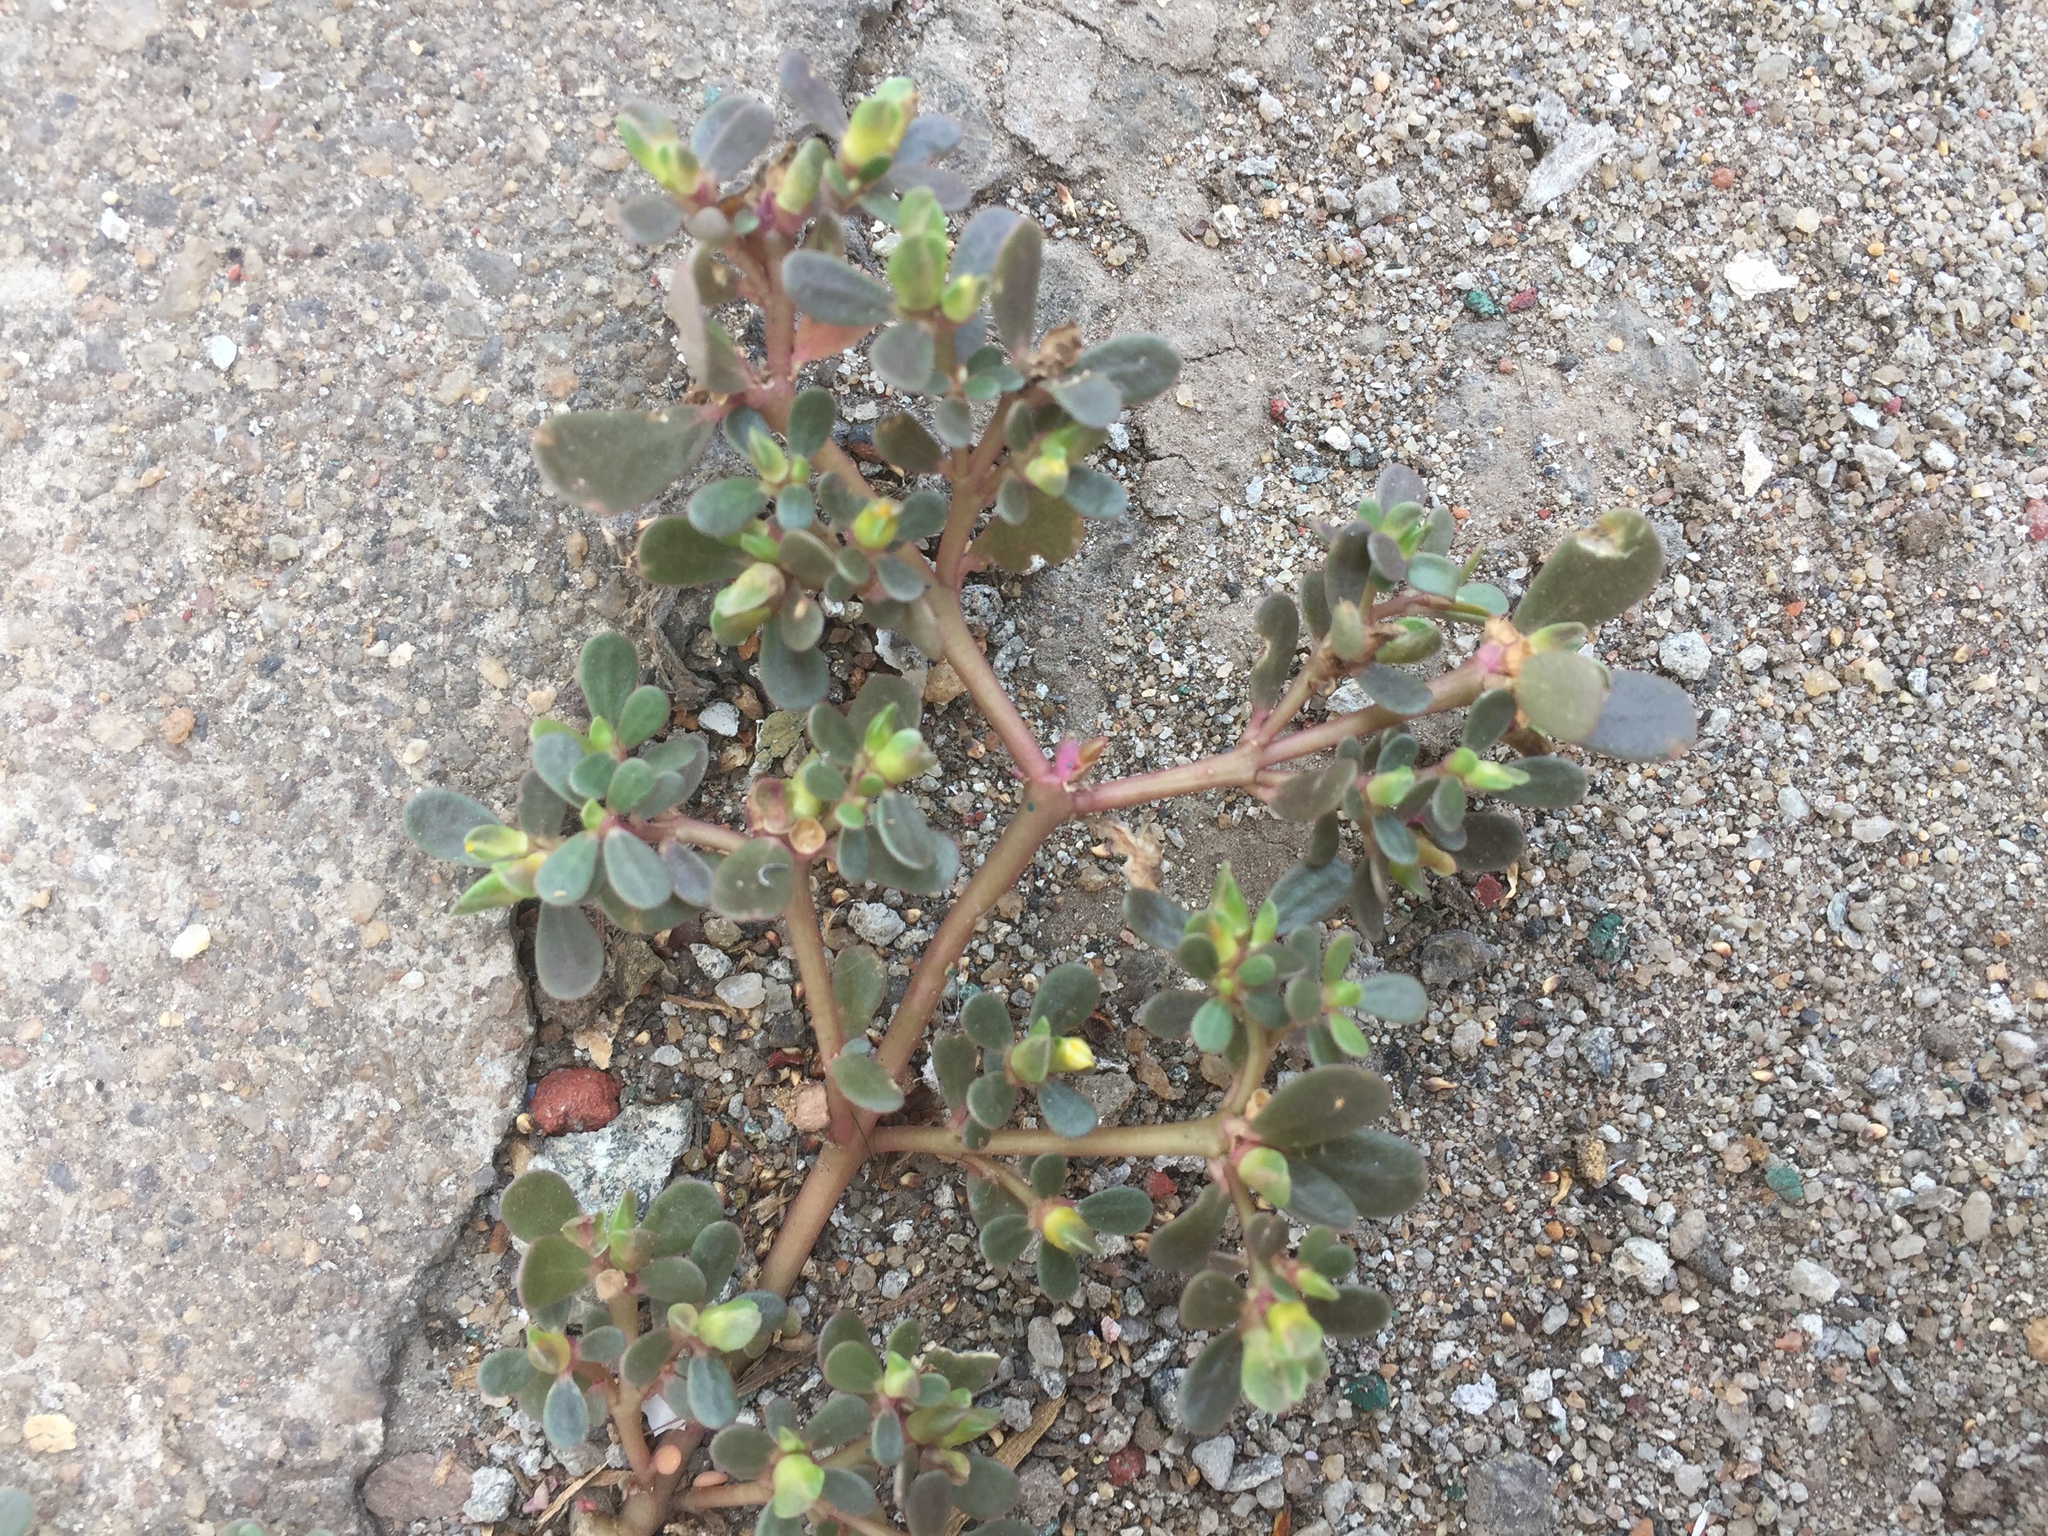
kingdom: Plantae
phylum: Tracheophyta
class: Magnoliopsida
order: Caryophyllales
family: Portulacaceae
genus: Portulaca
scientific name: Portulaca oleracea
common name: Common purslane
